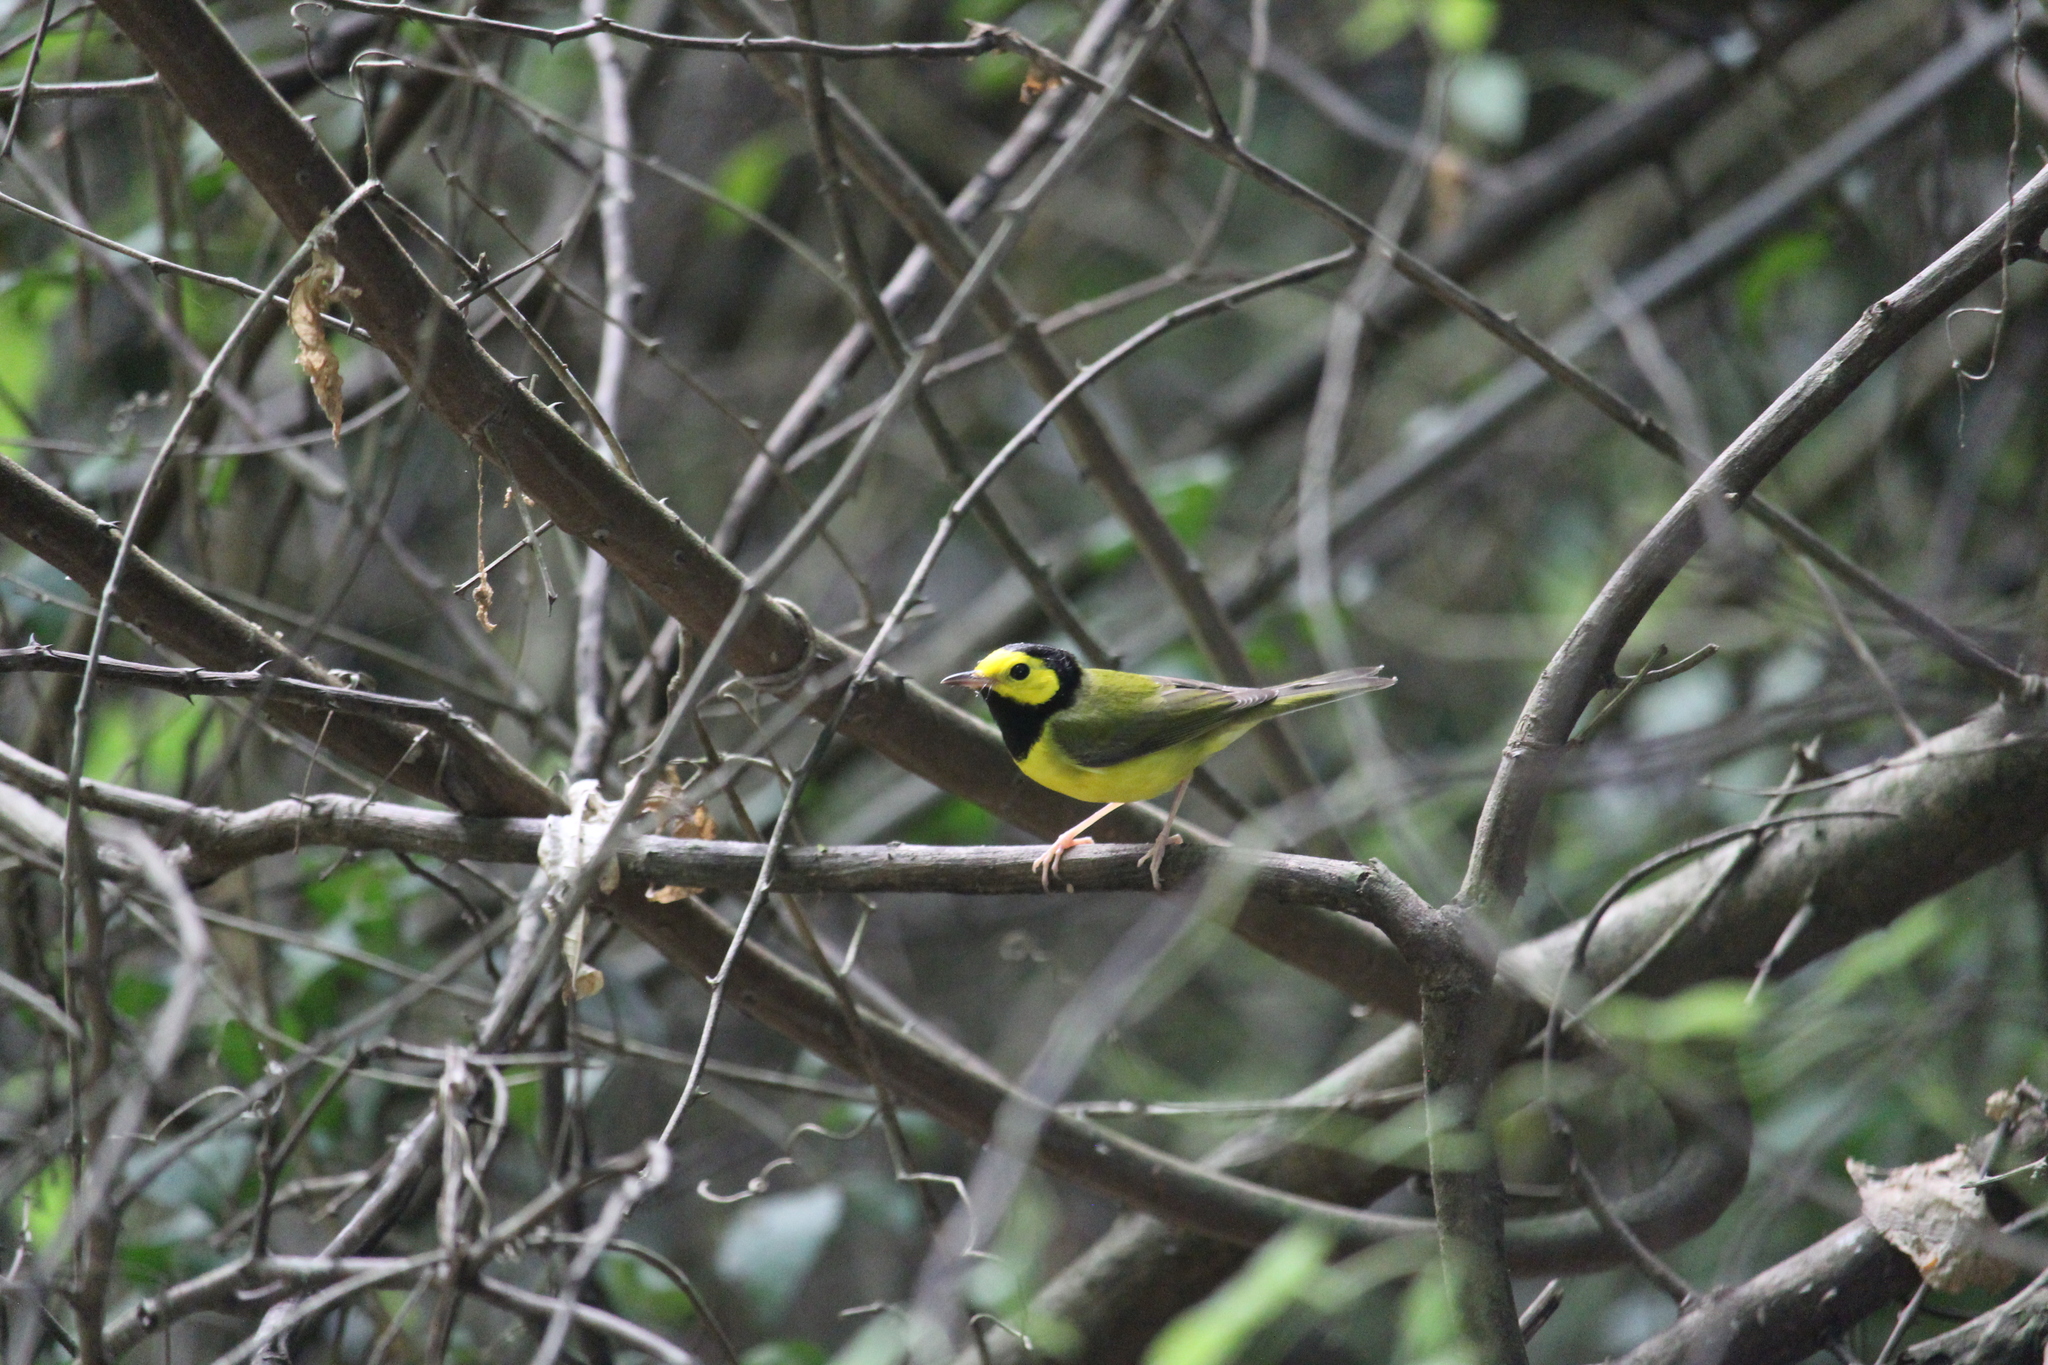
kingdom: Animalia
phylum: Chordata
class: Aves
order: Passeriformes
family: Parulidae
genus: Setophaga
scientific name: Setophaga citrina
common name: Hooded warbler
